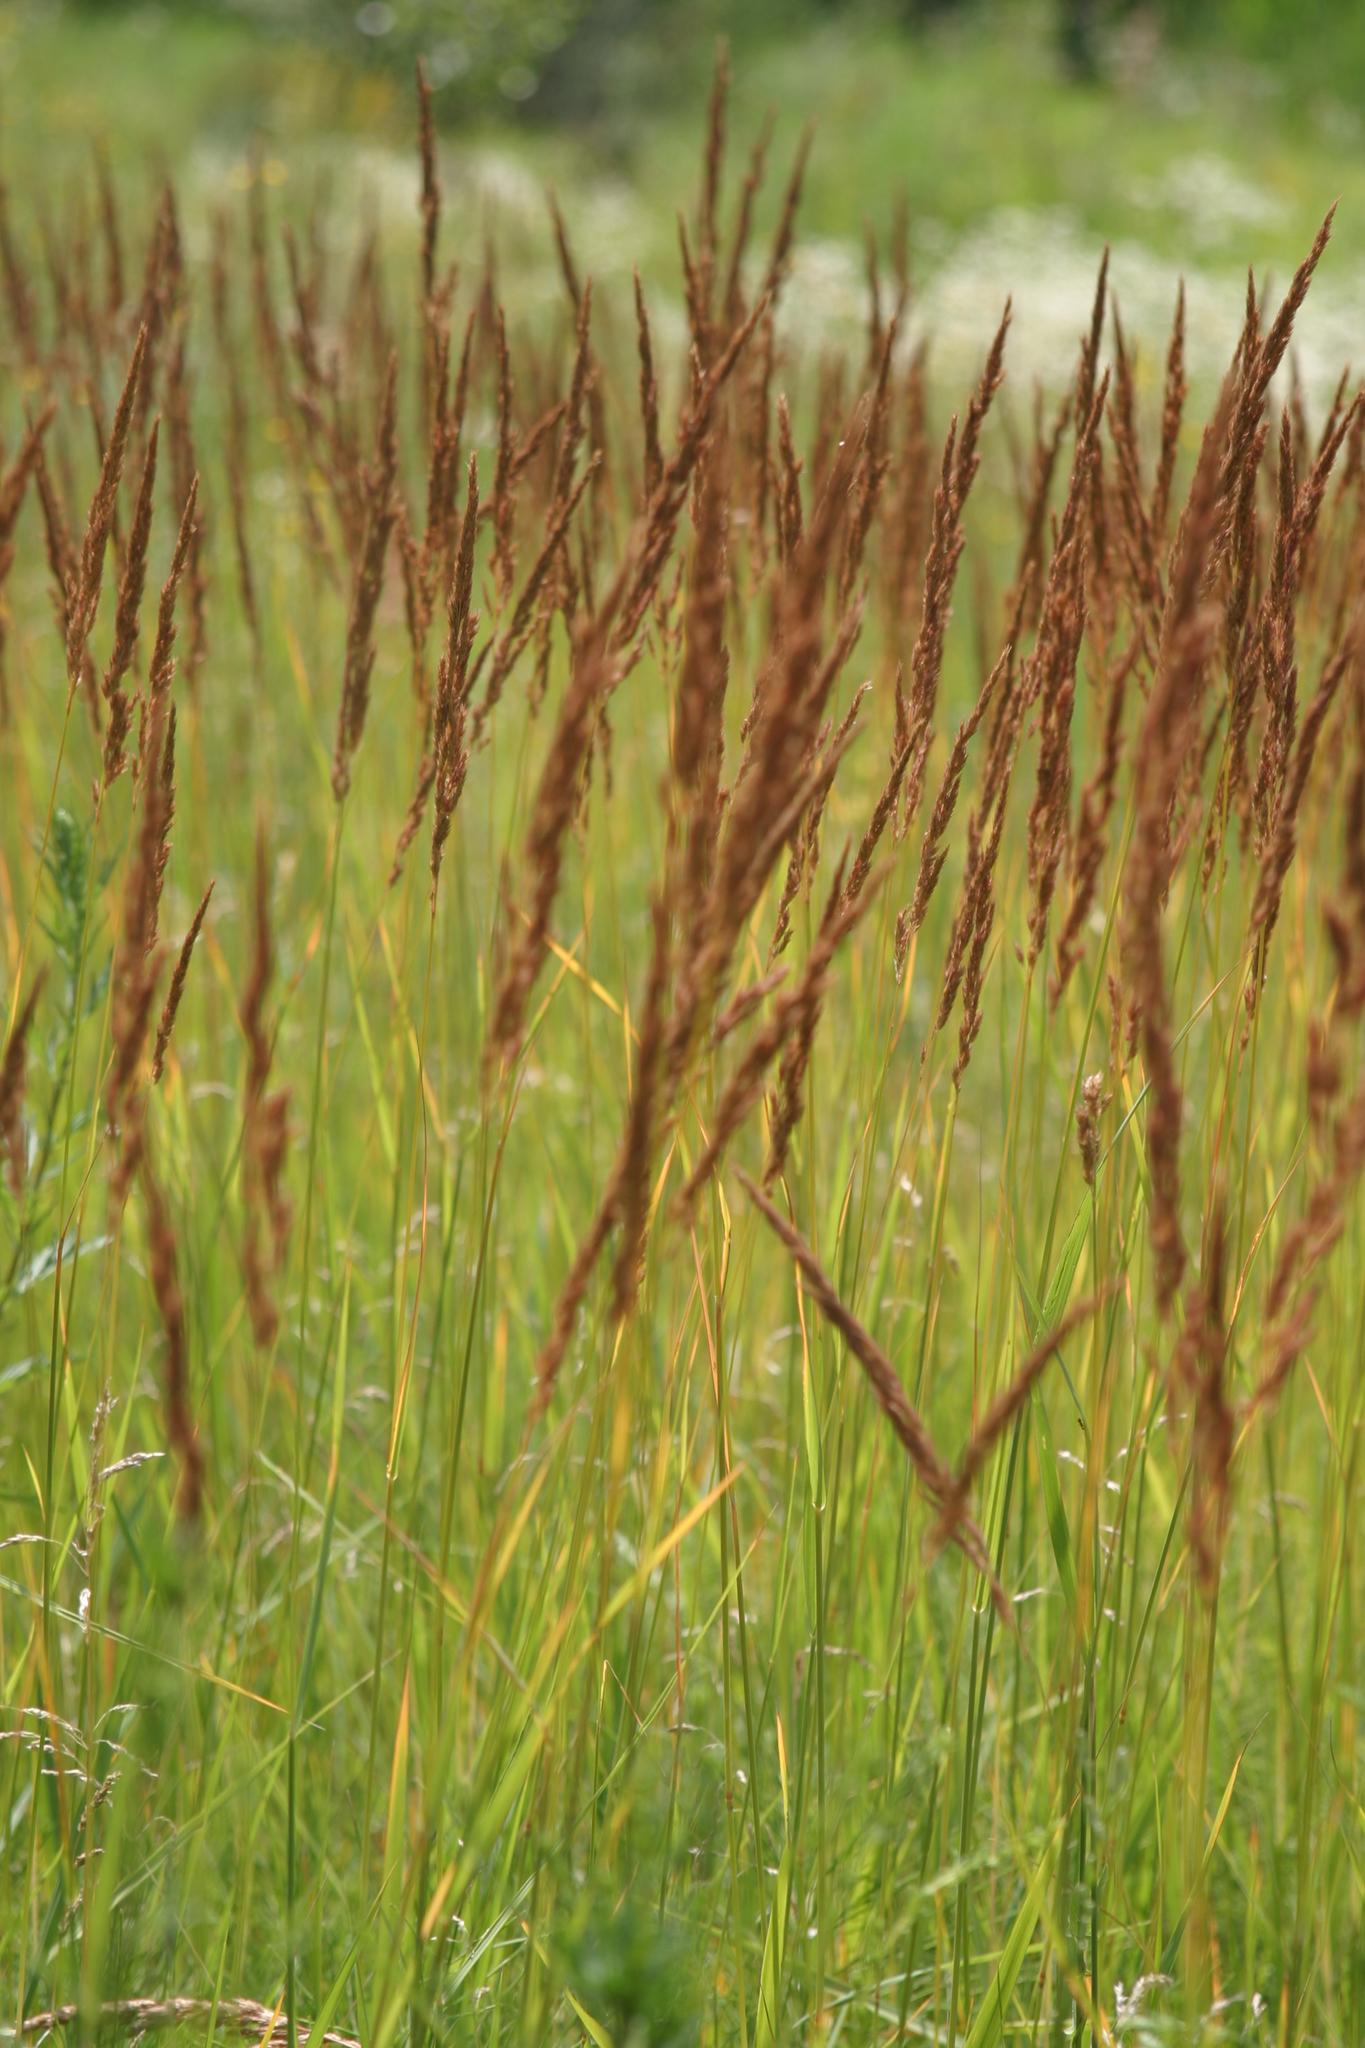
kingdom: Plantae
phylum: Tracheophyta
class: Liliopsida
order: Poales
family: Poaceae
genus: Calamagrostis
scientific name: Calamagrostis epigejos
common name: Wood small-reed
